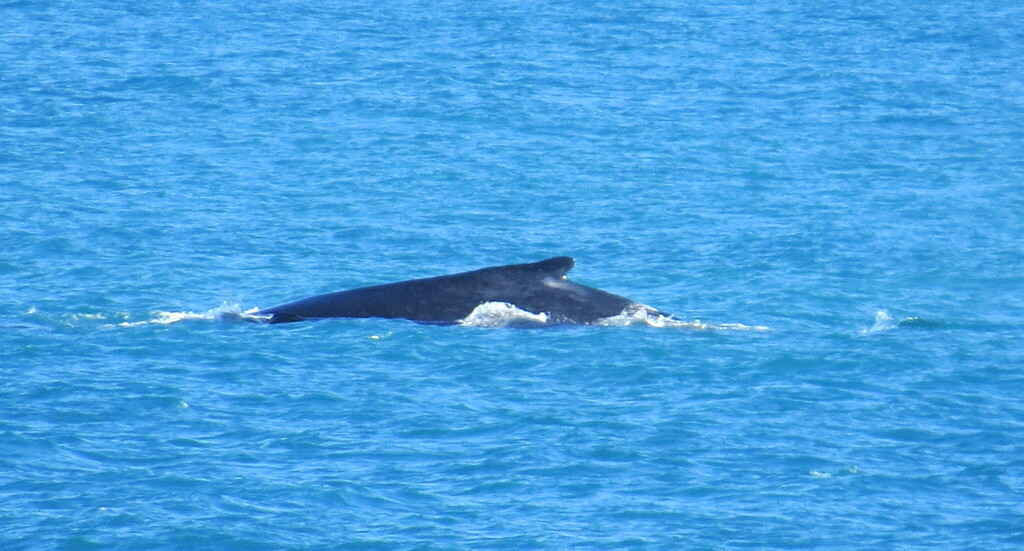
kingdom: Animalia
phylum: Chordata
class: Mammalia
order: Cetacea
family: Balaenopteridae
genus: Megaptera
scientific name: Megaptera novaeangliae
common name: Humpback whale
